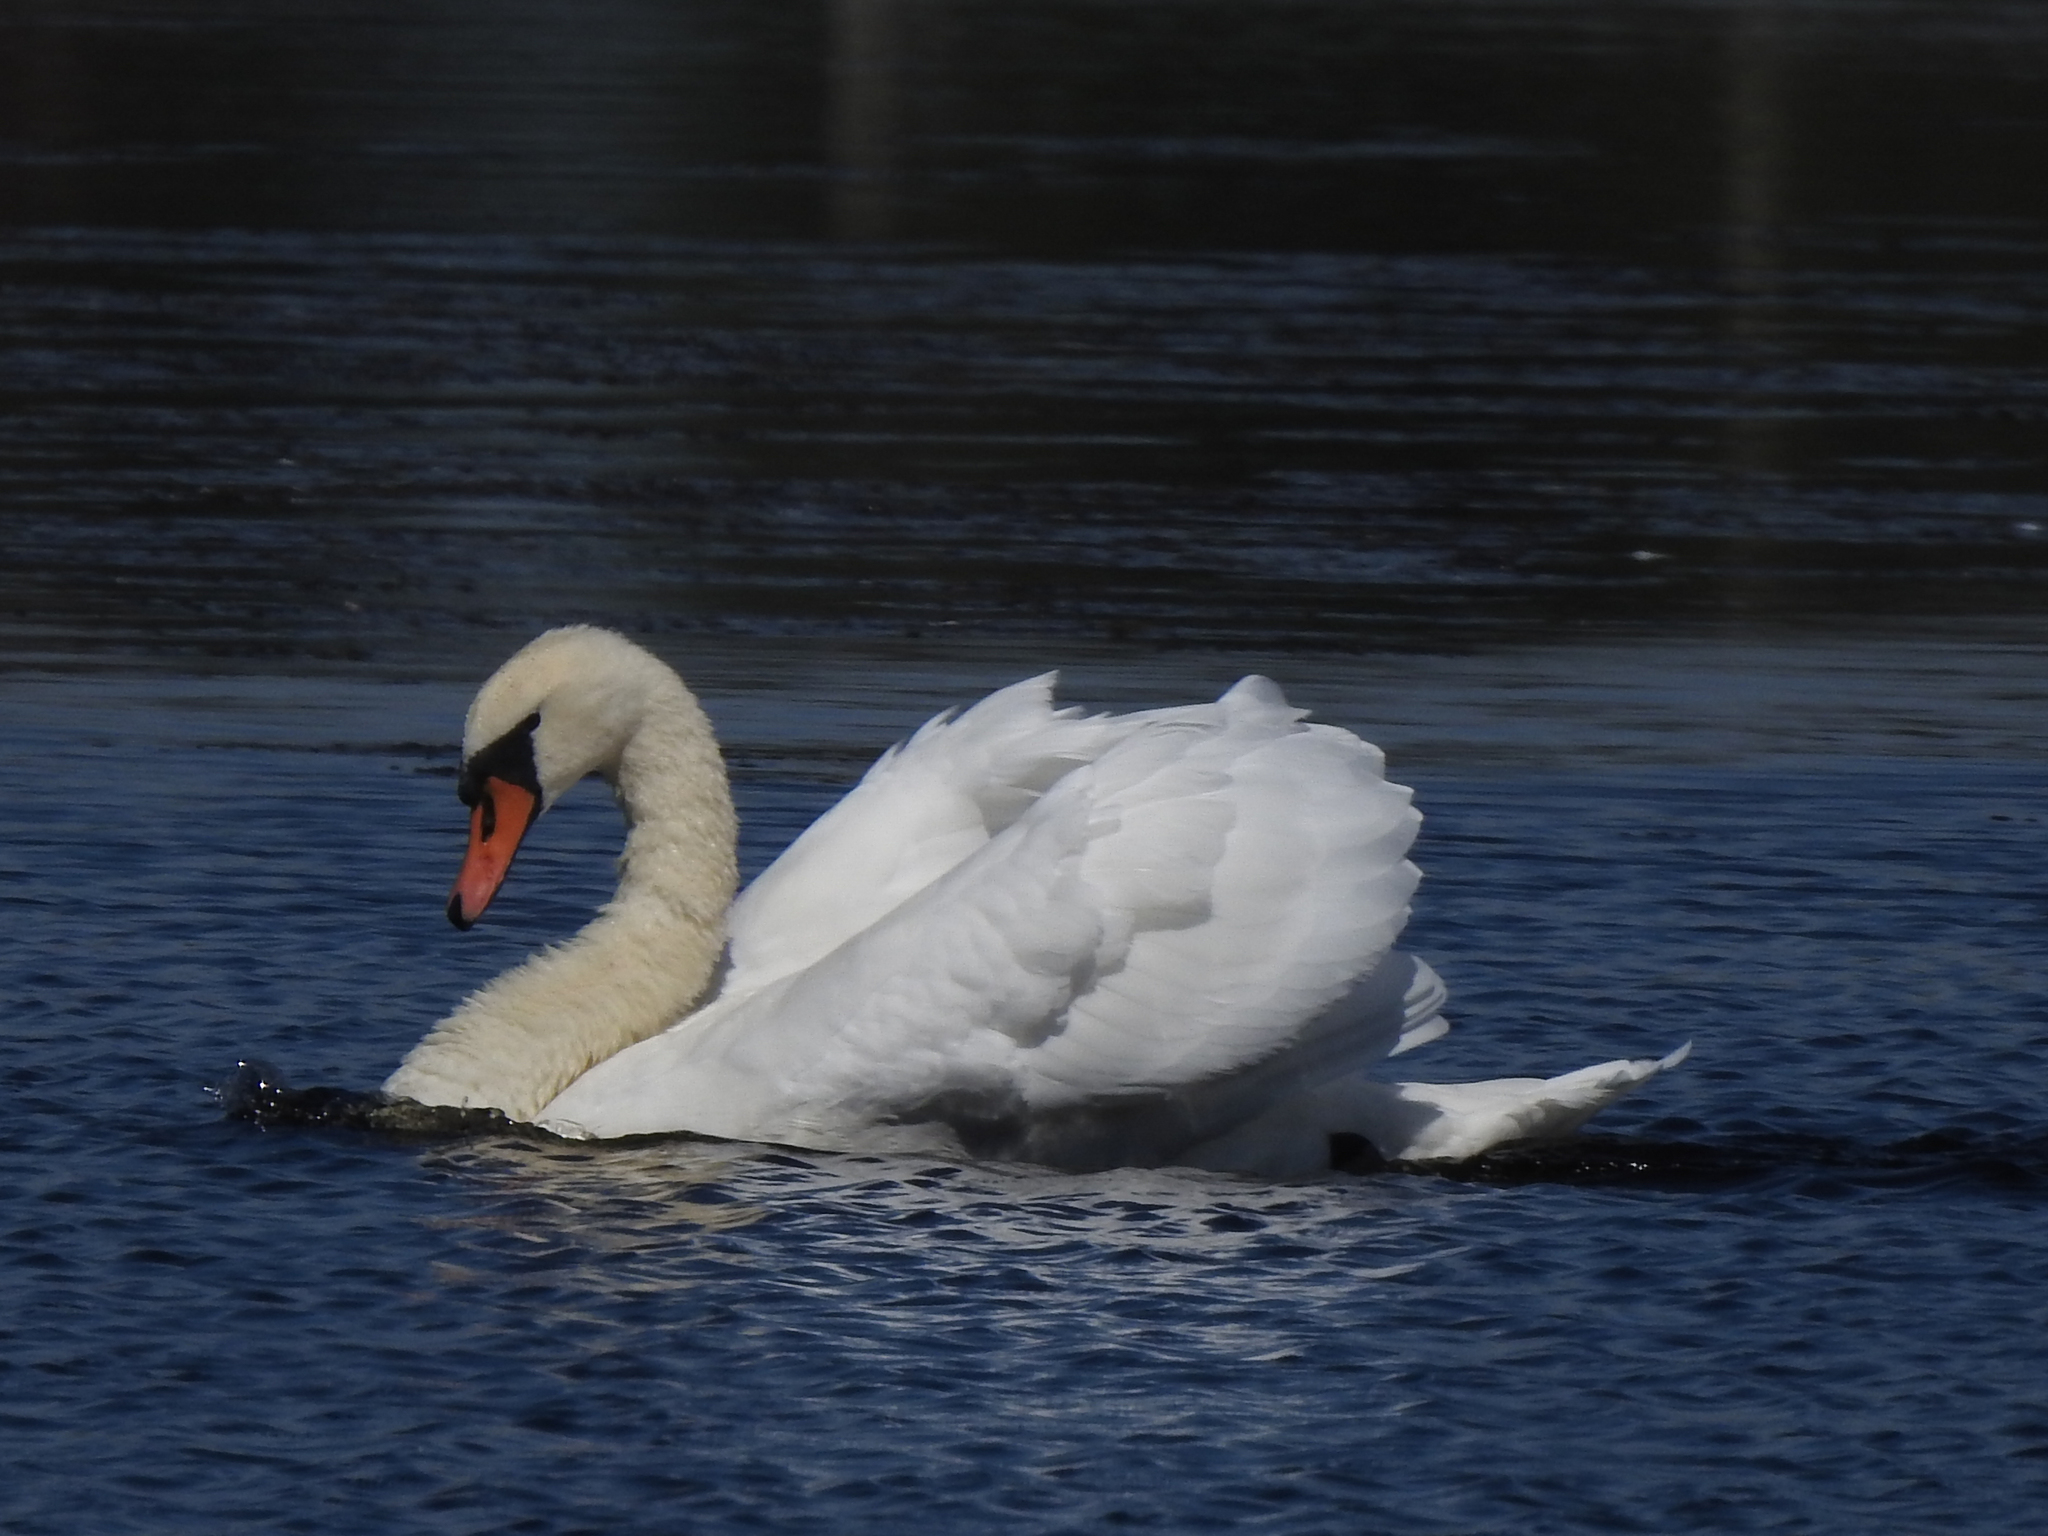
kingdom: Animalia
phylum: Chordata
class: Aves
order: Anseriformes
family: Anatidae
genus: Cygnus
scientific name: Cygnus olor
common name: Mute swan
